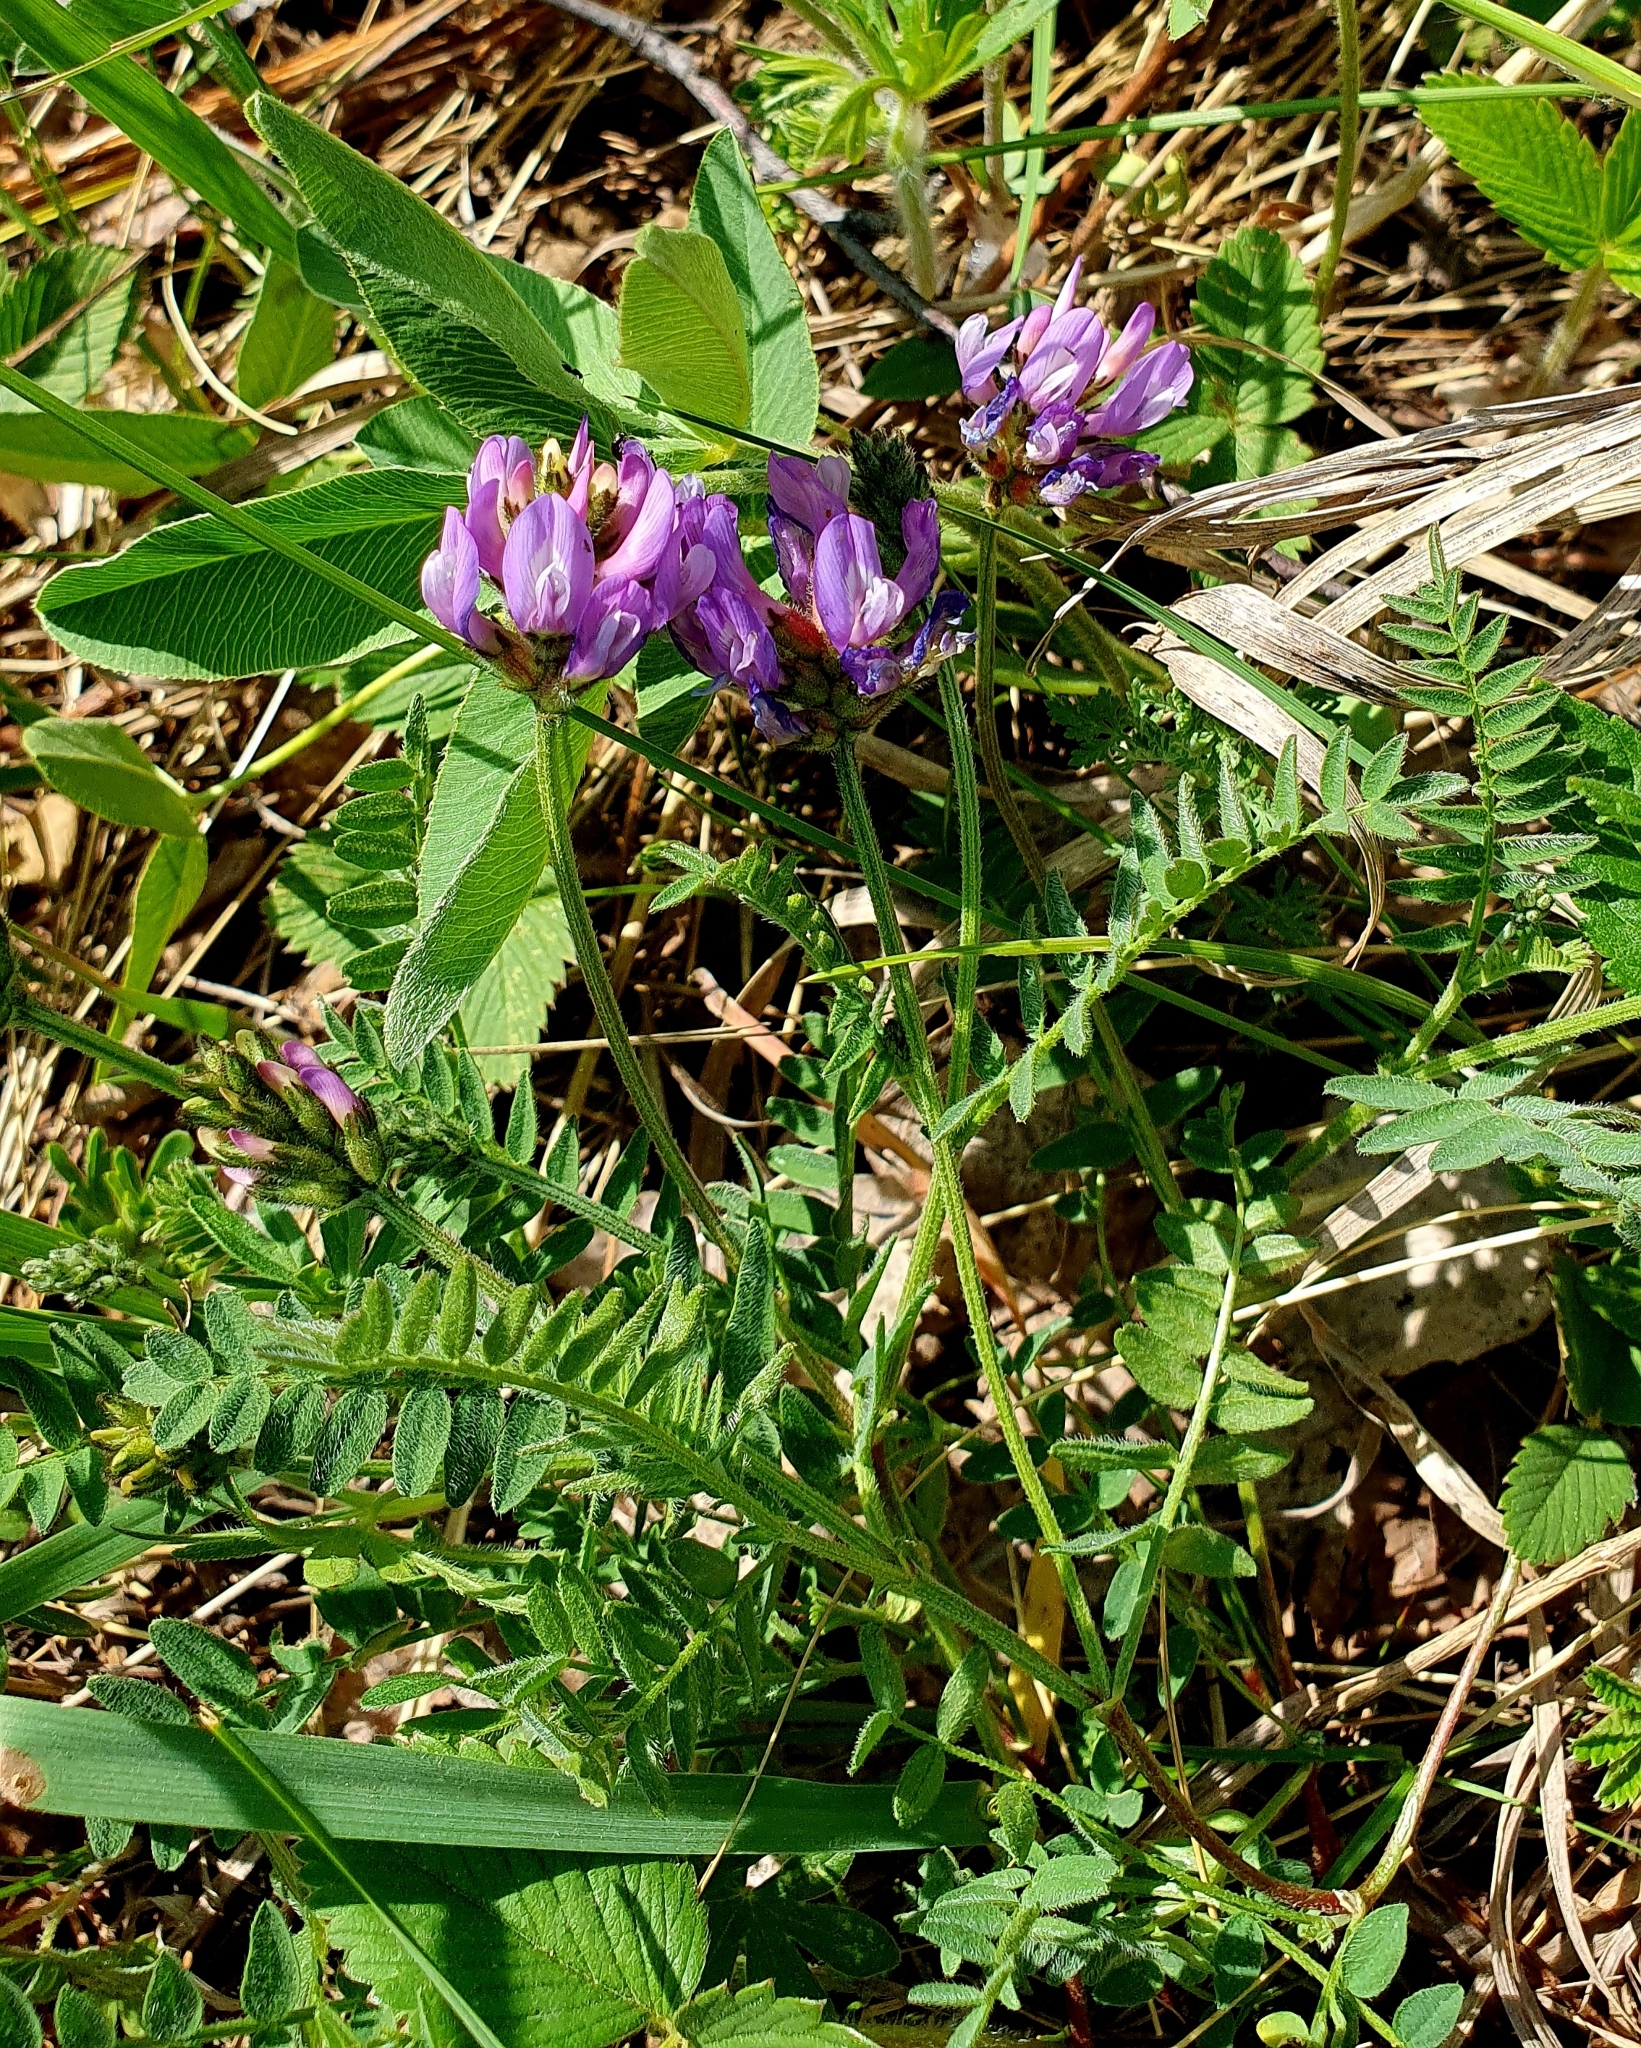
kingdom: Plantae
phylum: Tracheophyta
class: Magnoliopsida
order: Fabales
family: Fabaceae
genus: Astragalus
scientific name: Astragalus danicus
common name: Purple milk-vetch
